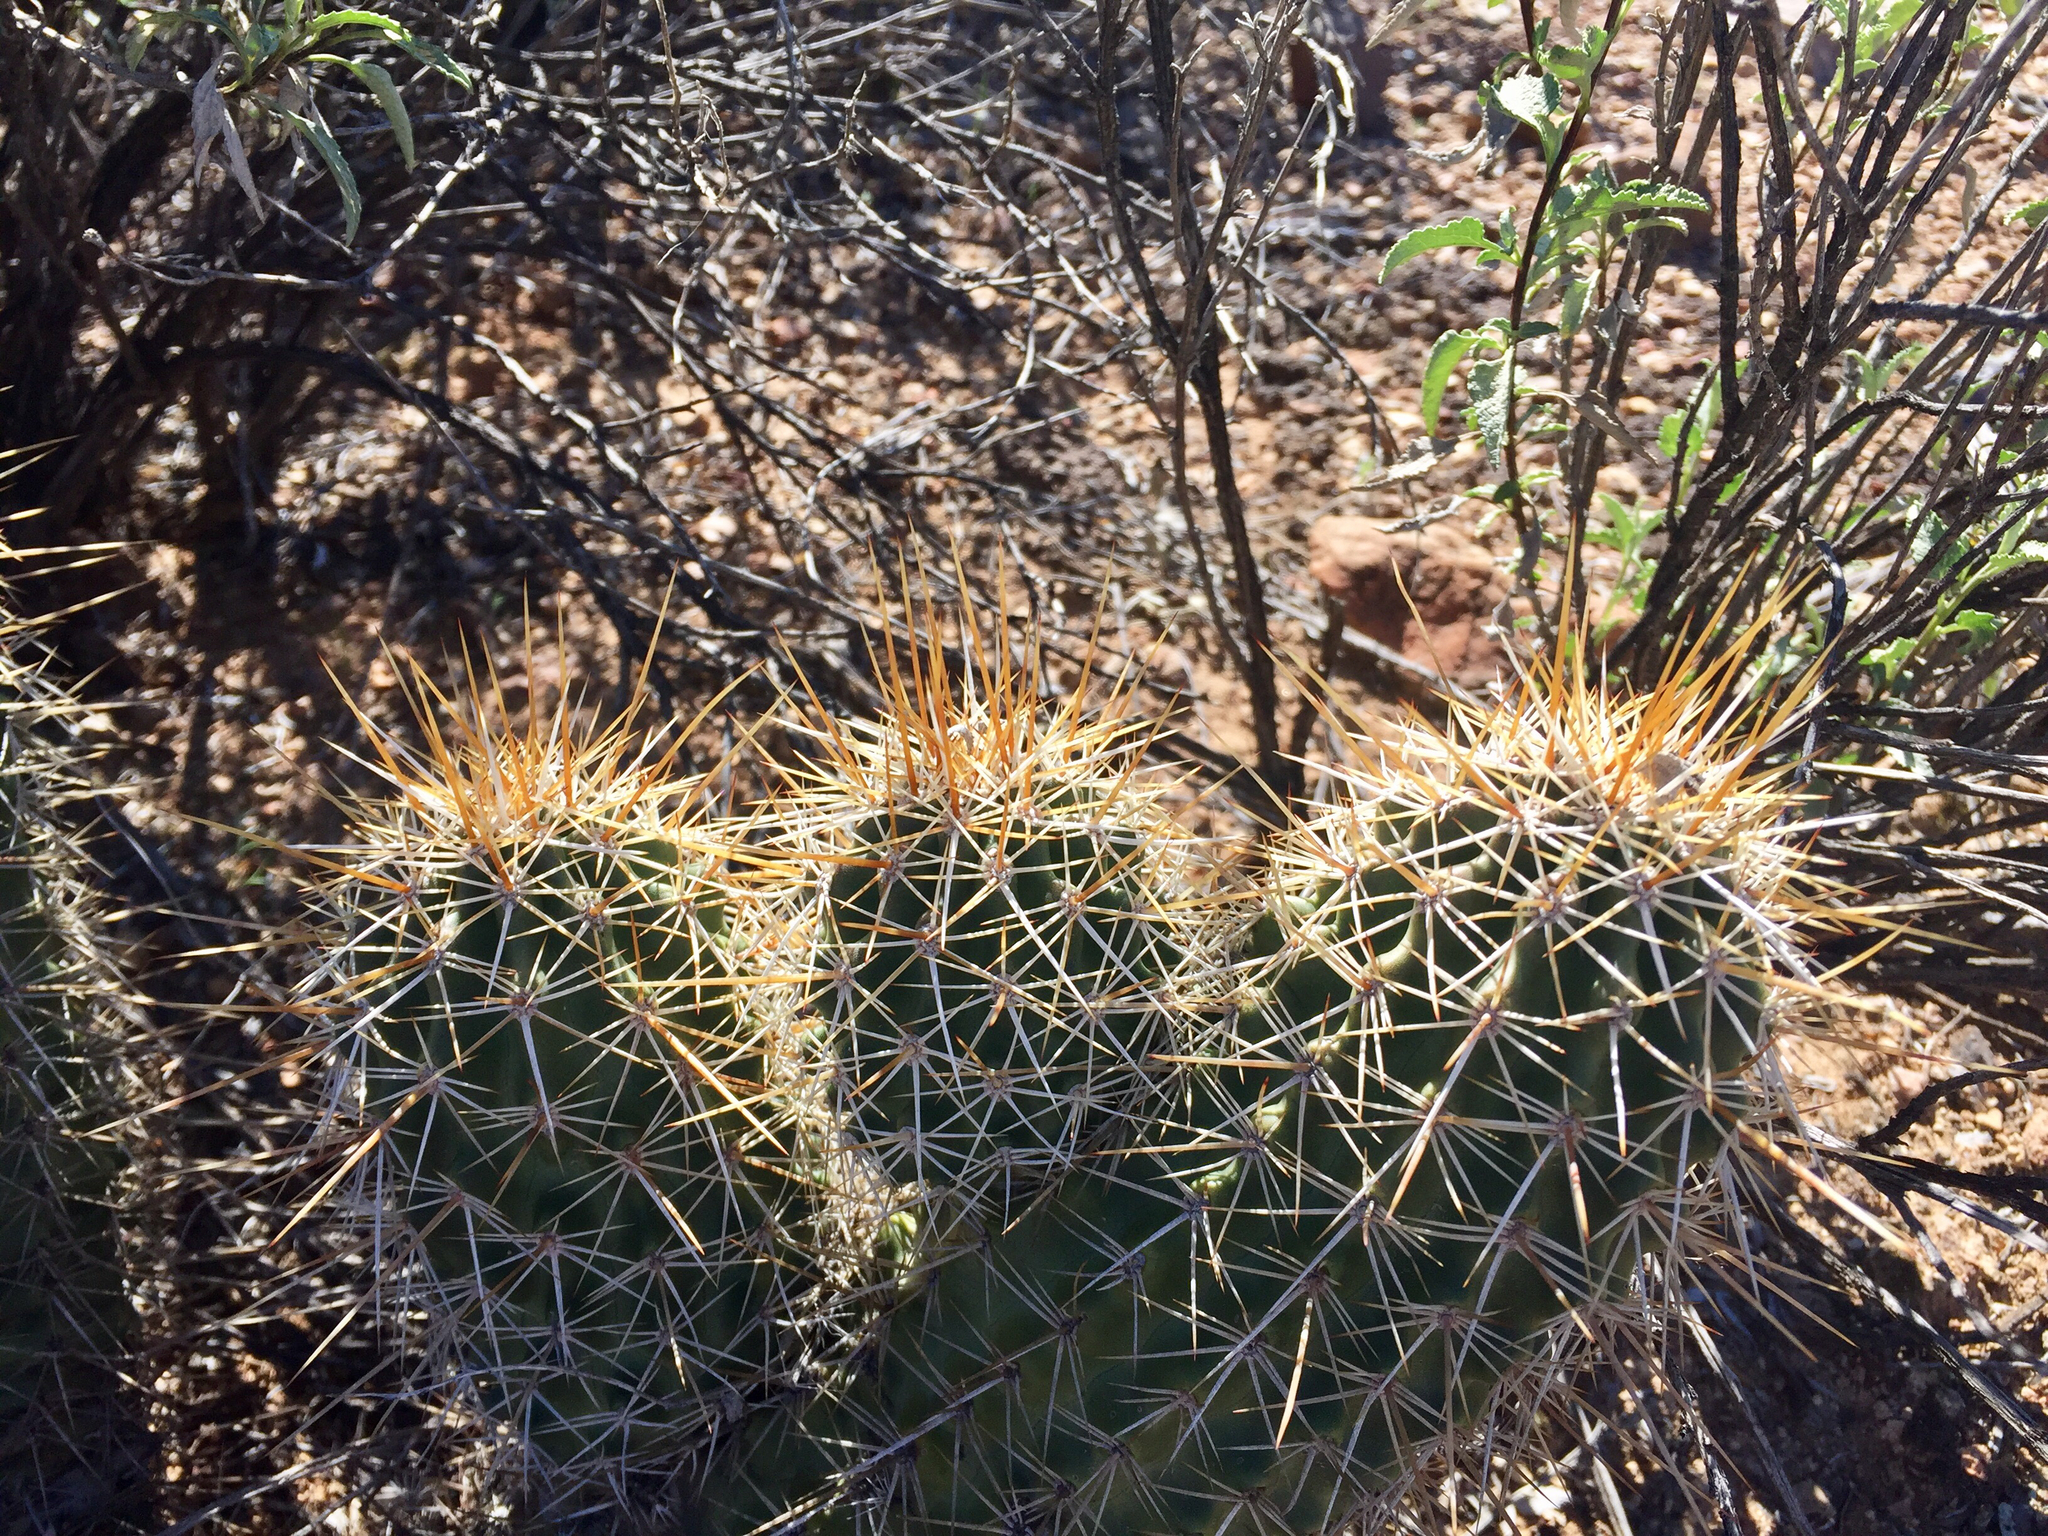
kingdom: Plantae
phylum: Tracheophyta
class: Magnoliopsida
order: Caryophyllales
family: Cactaceae
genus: Echinocereus
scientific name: Echinocereus fasciculatus
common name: Bundle hedgehog
